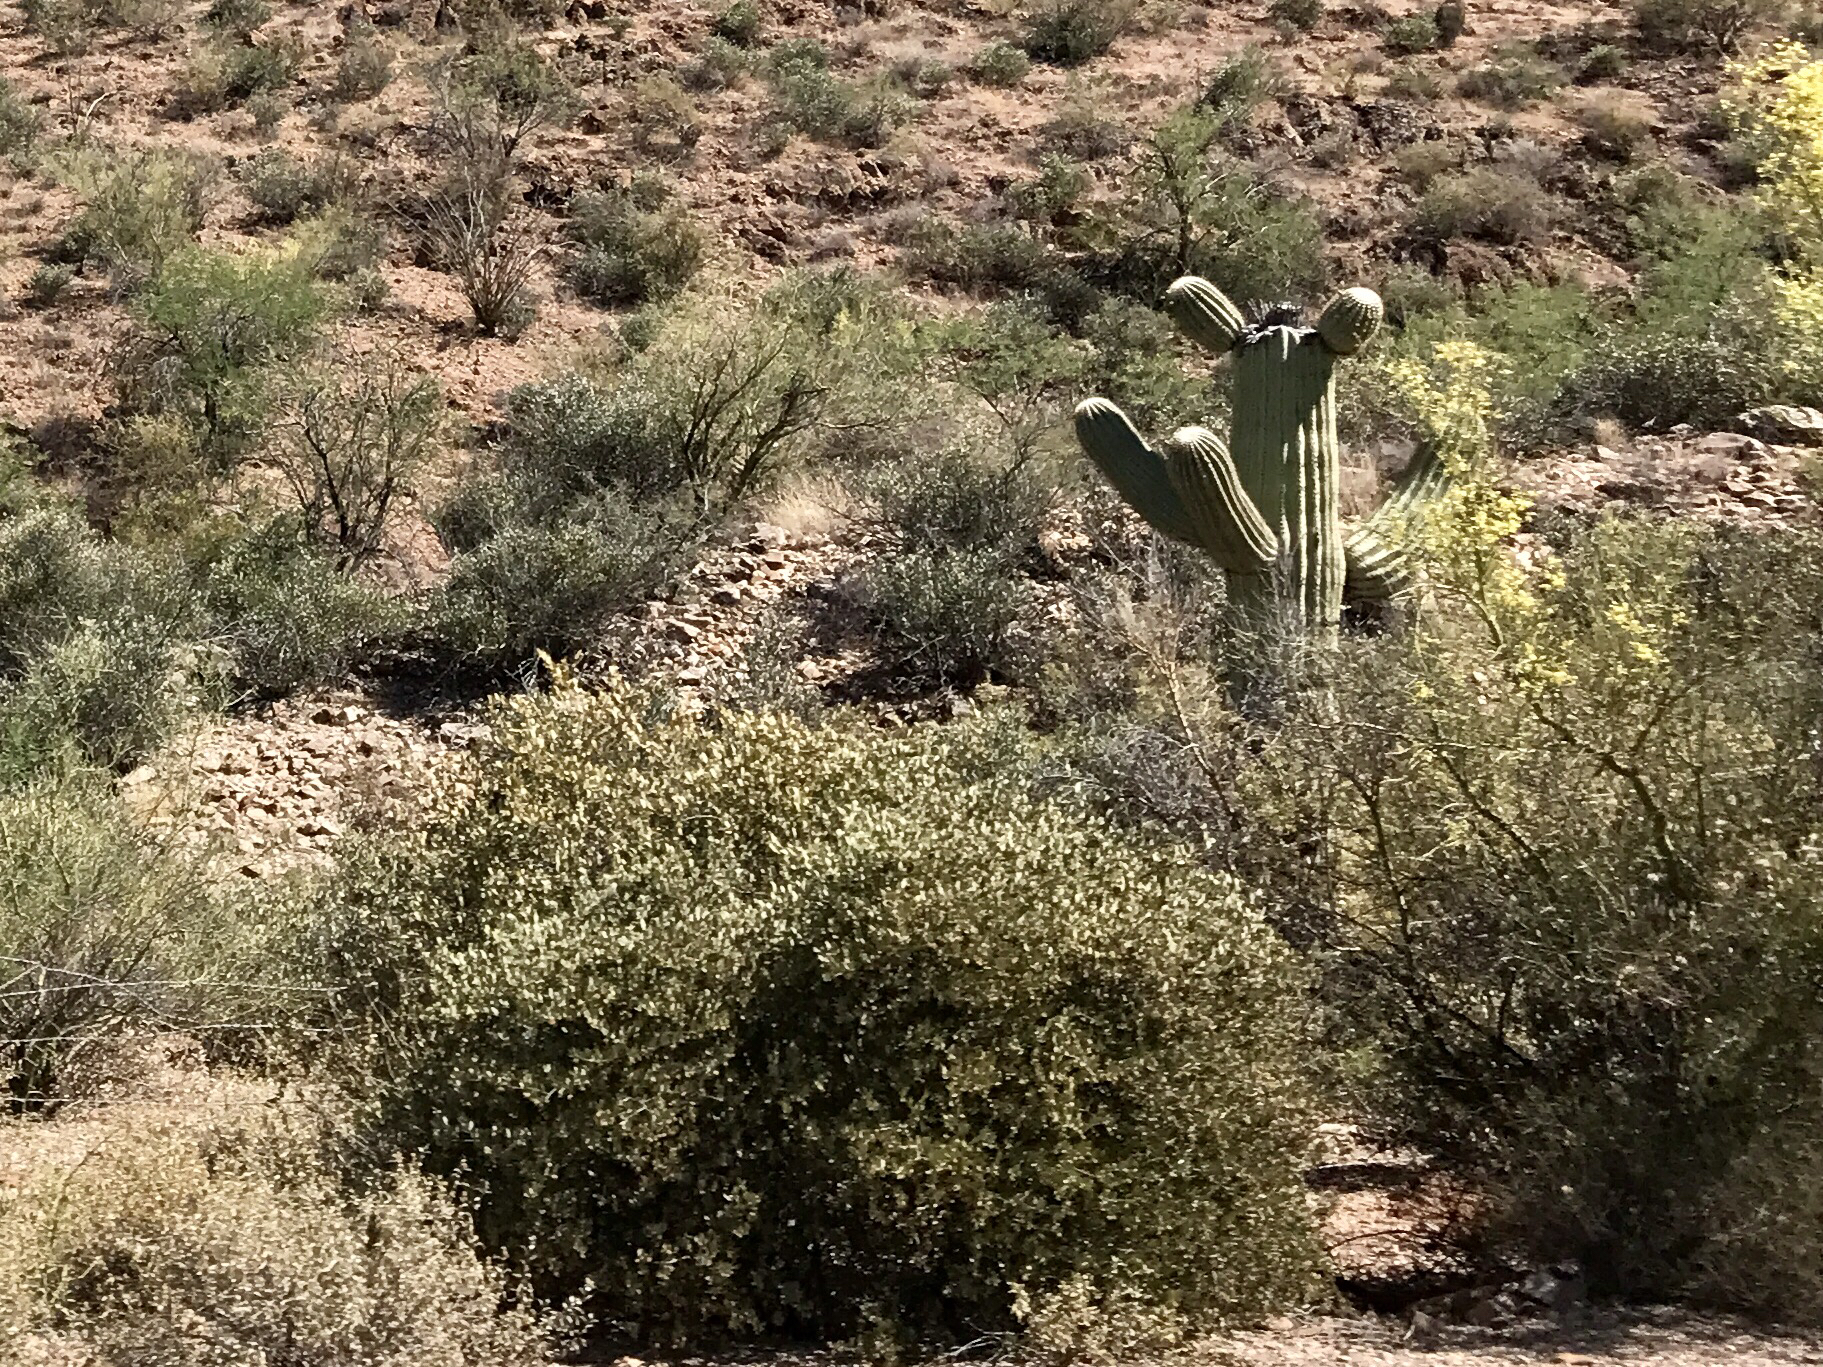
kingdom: Plantae
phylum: Tracheophyta
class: Magnoliopsida
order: Caryophyllales
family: Simmondsiaceae
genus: Simmondsia
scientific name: Simmondsia chinensis
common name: Jojoba
